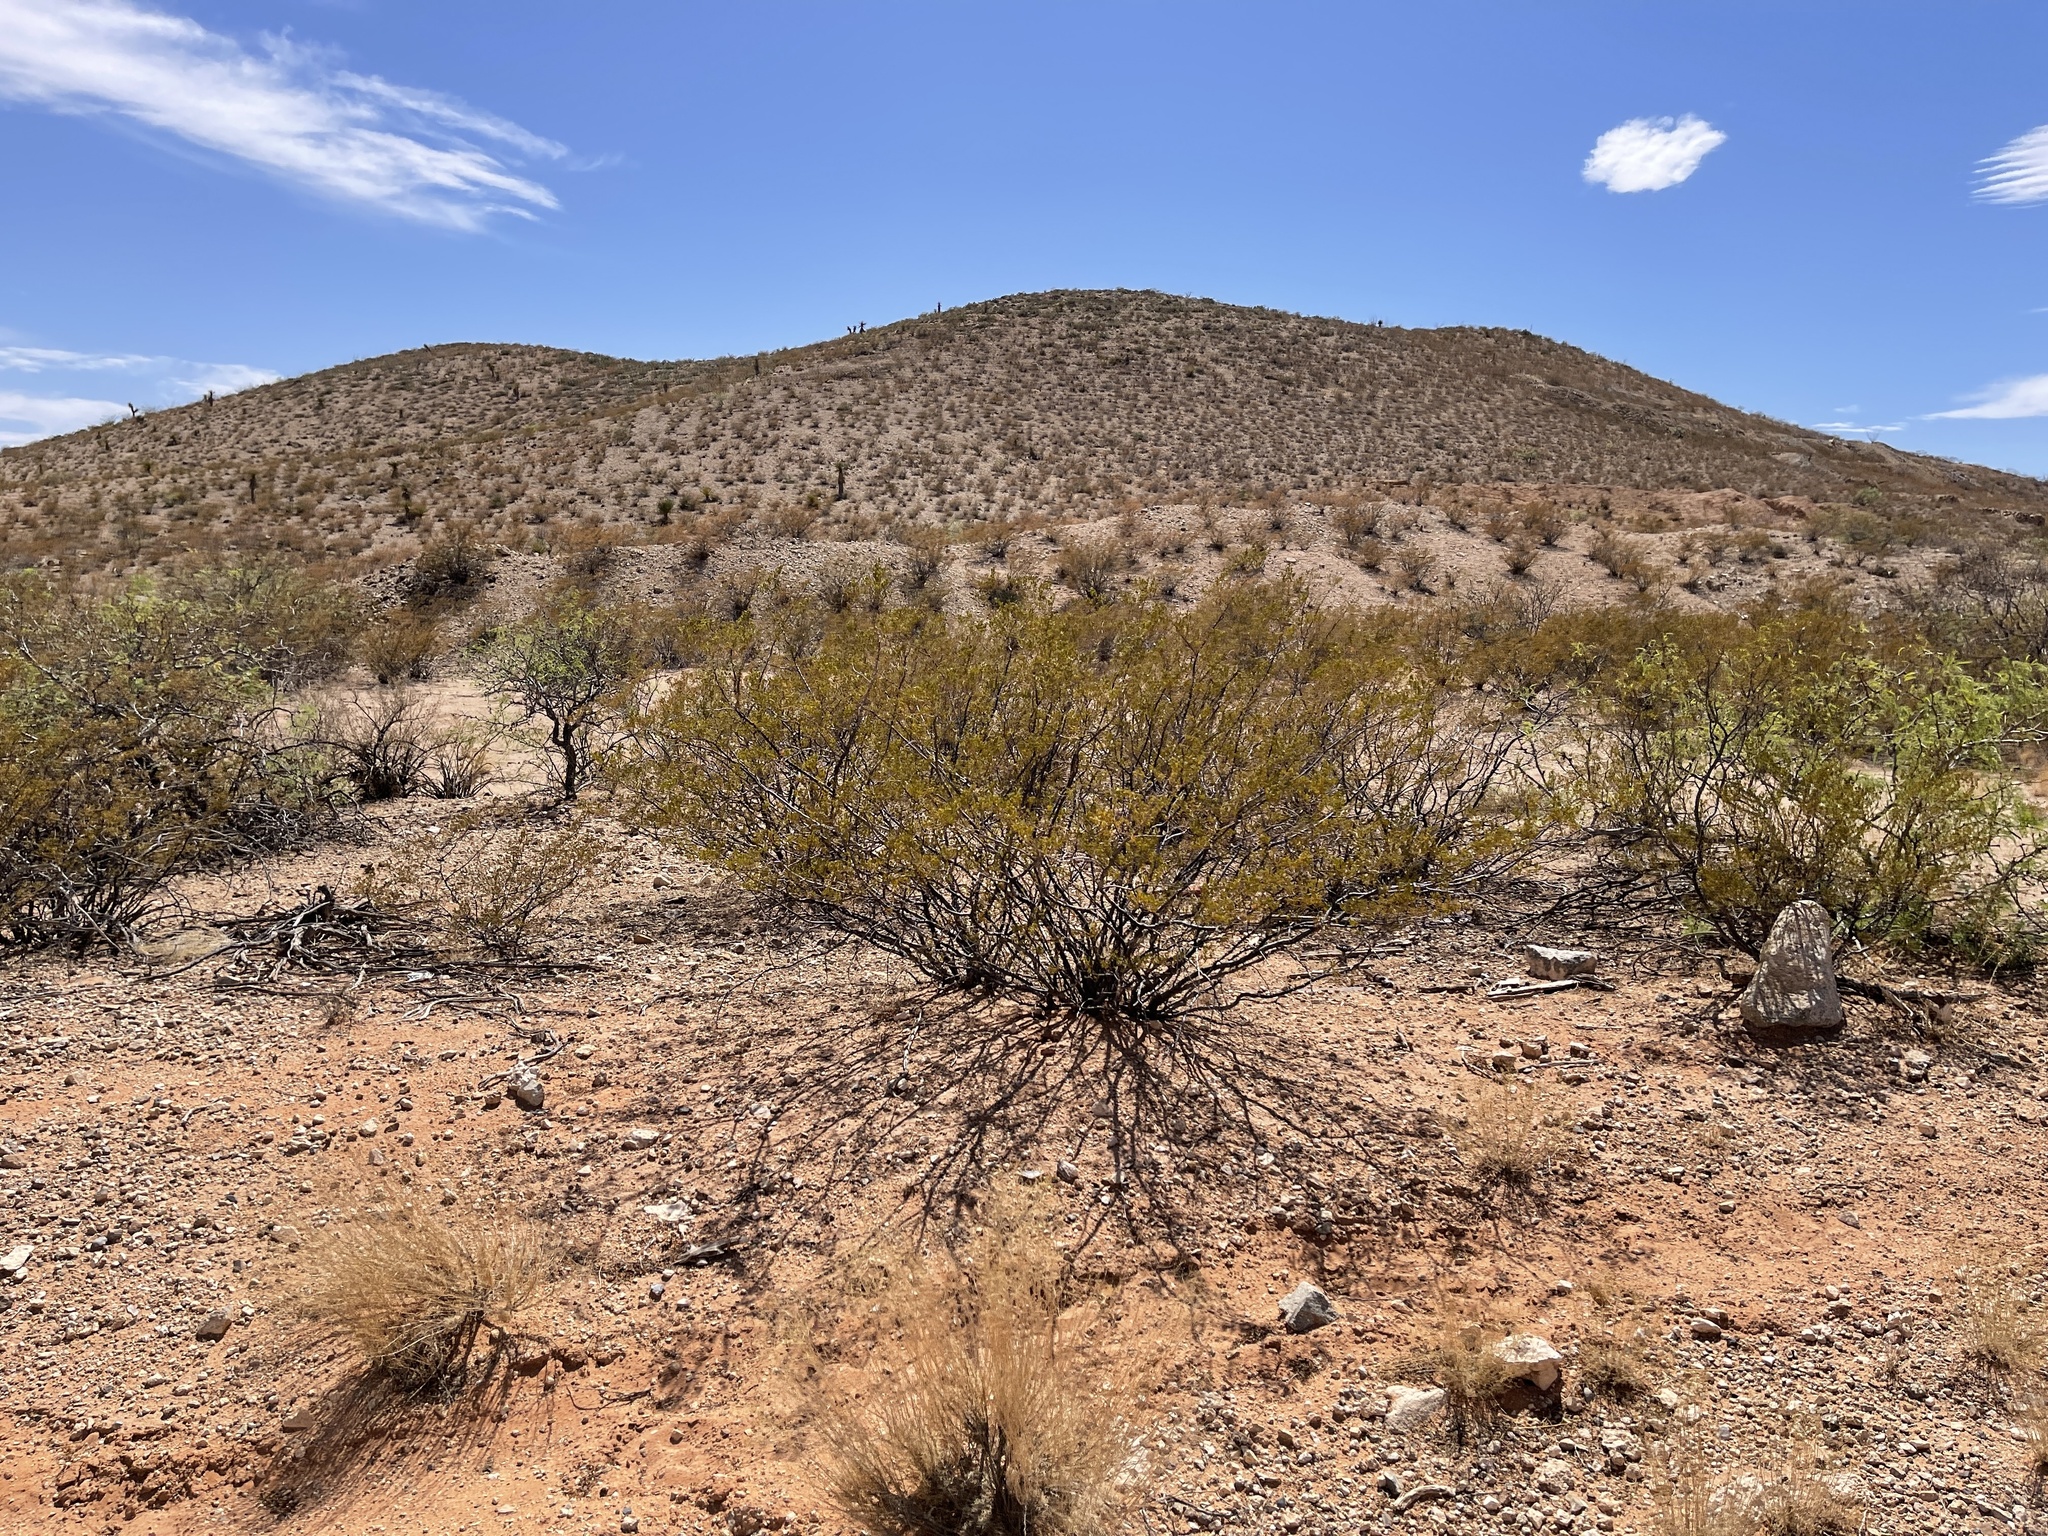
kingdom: Plantae
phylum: Tracheophyta
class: Magnoliopsida
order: Zygophyllales
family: Zygophyllaceae
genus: Larrea
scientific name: Larrea tridentata
